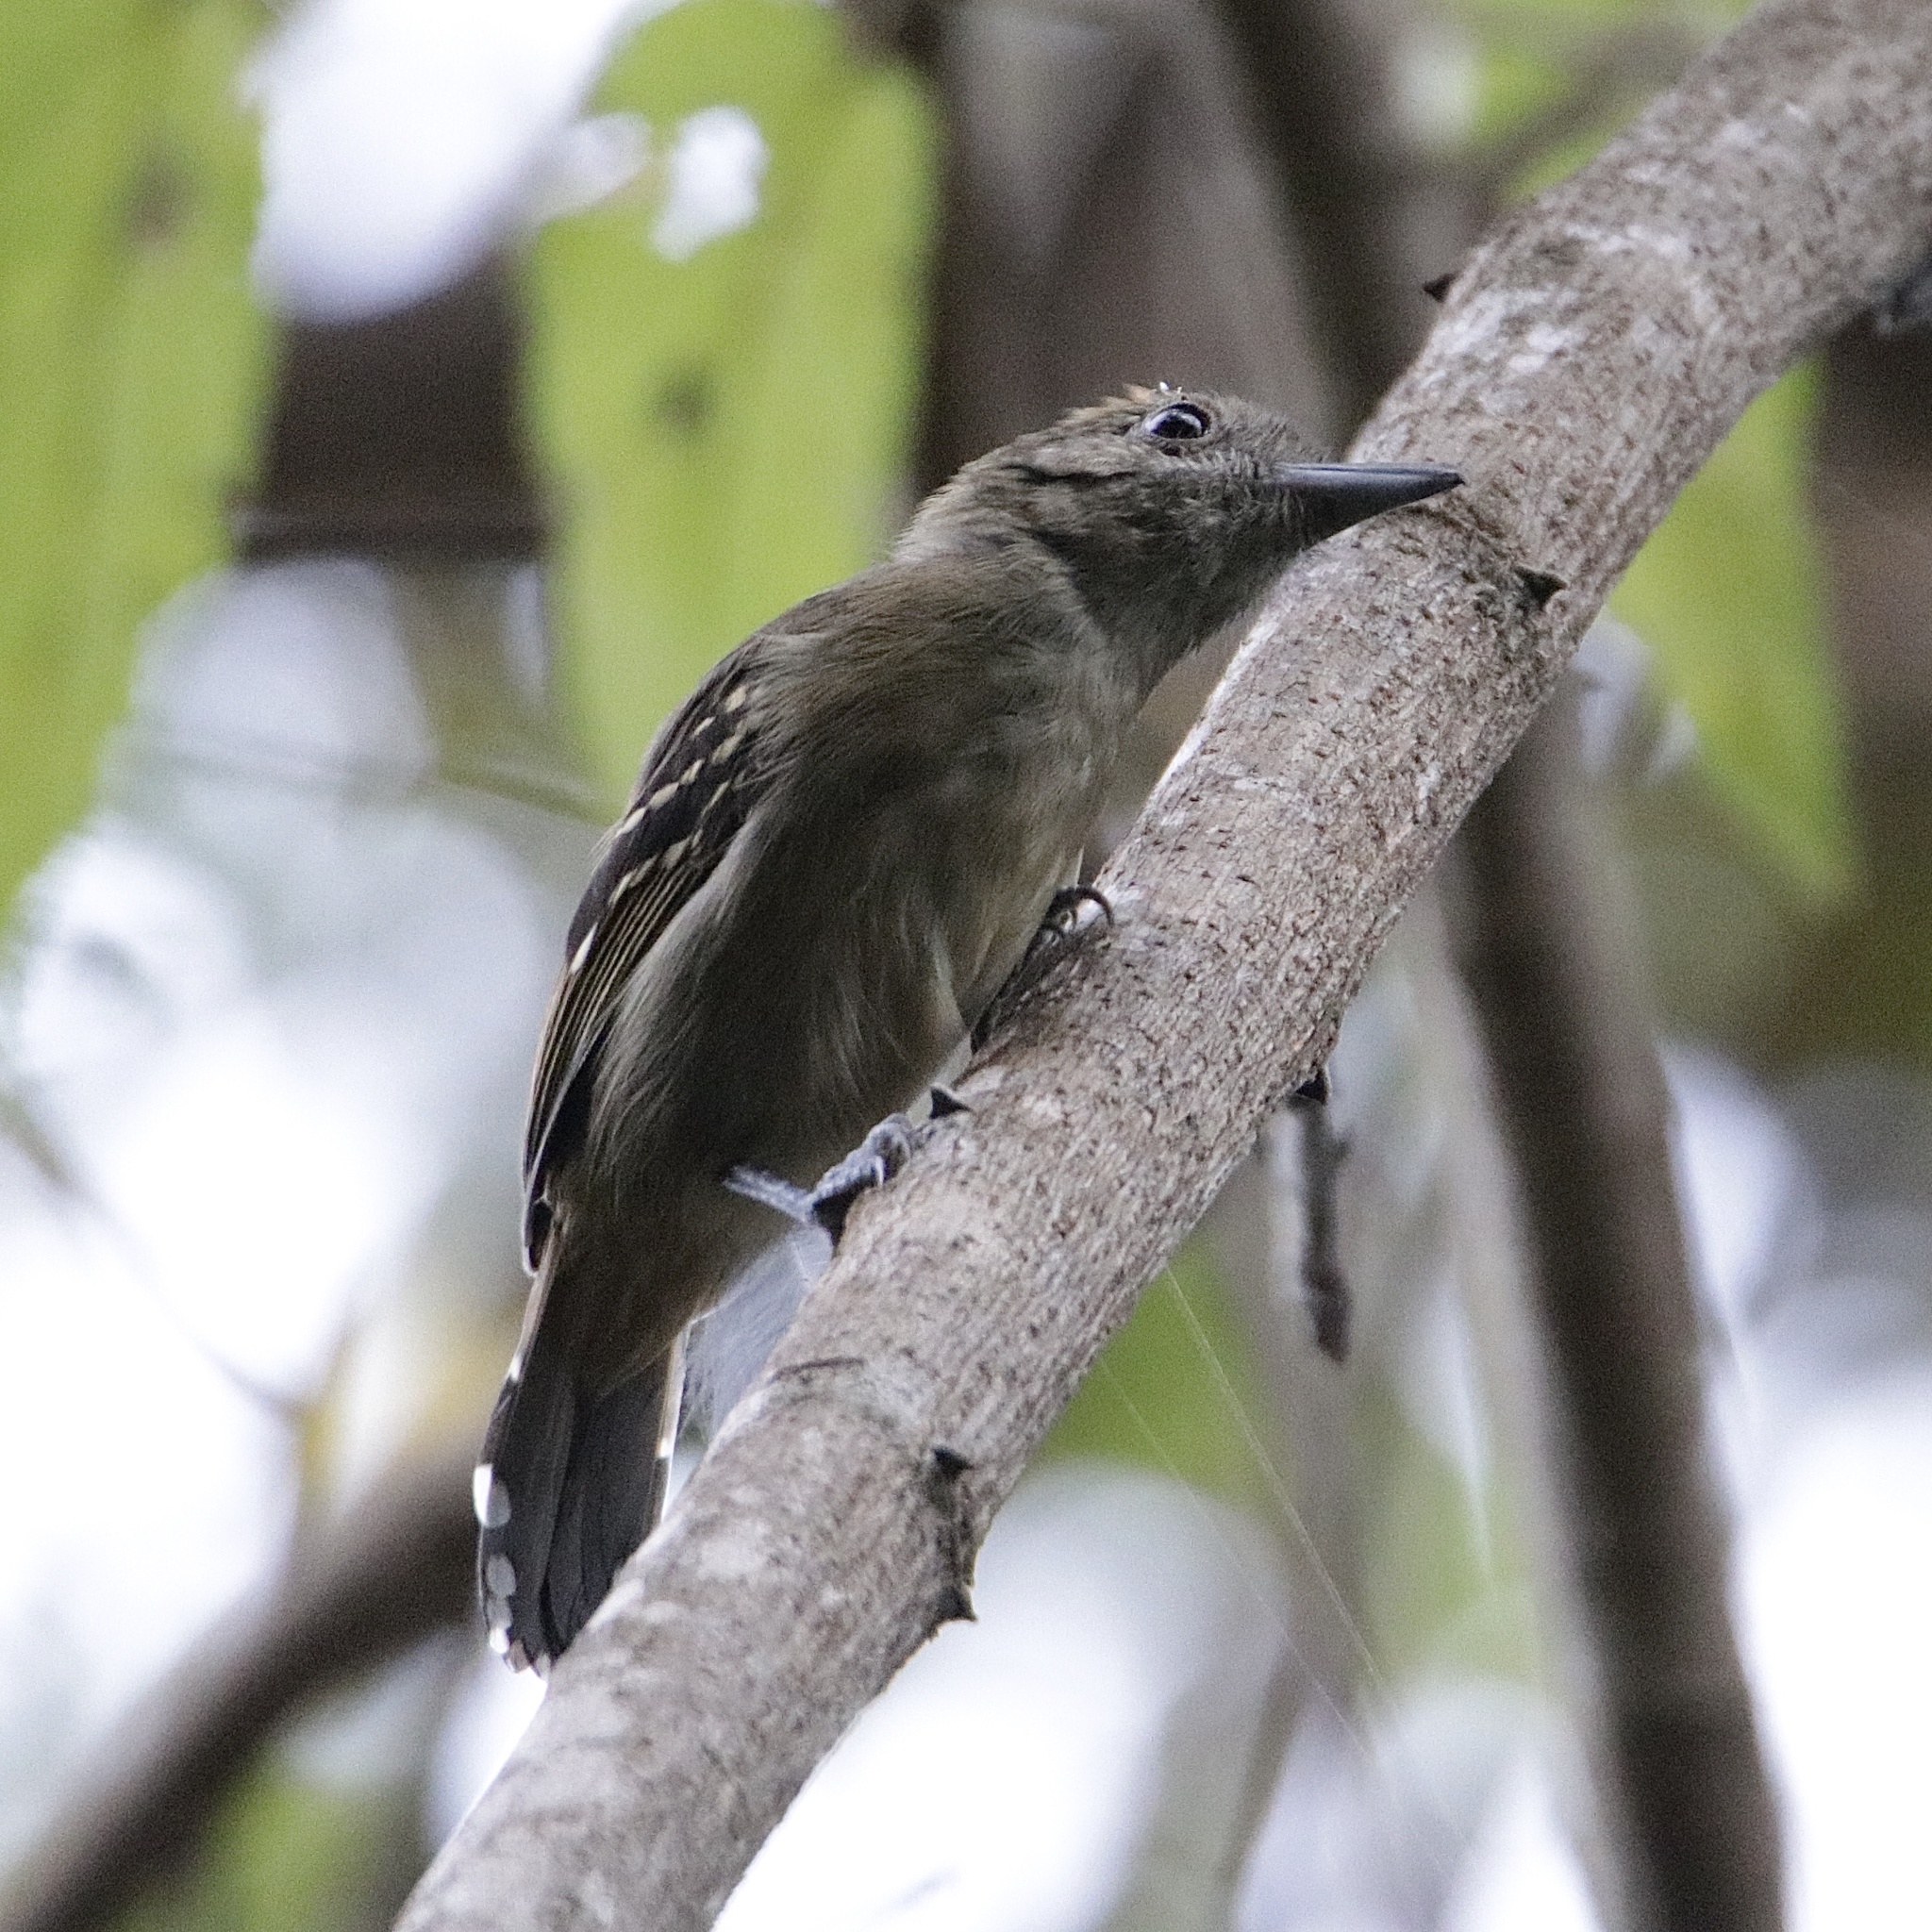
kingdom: Animalia
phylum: Chordata
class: Aves
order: Passeriformes
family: Thamnophilidae
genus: Thamnophilus
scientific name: Thamnophilus atrinucha
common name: Black-crowned antshrike
